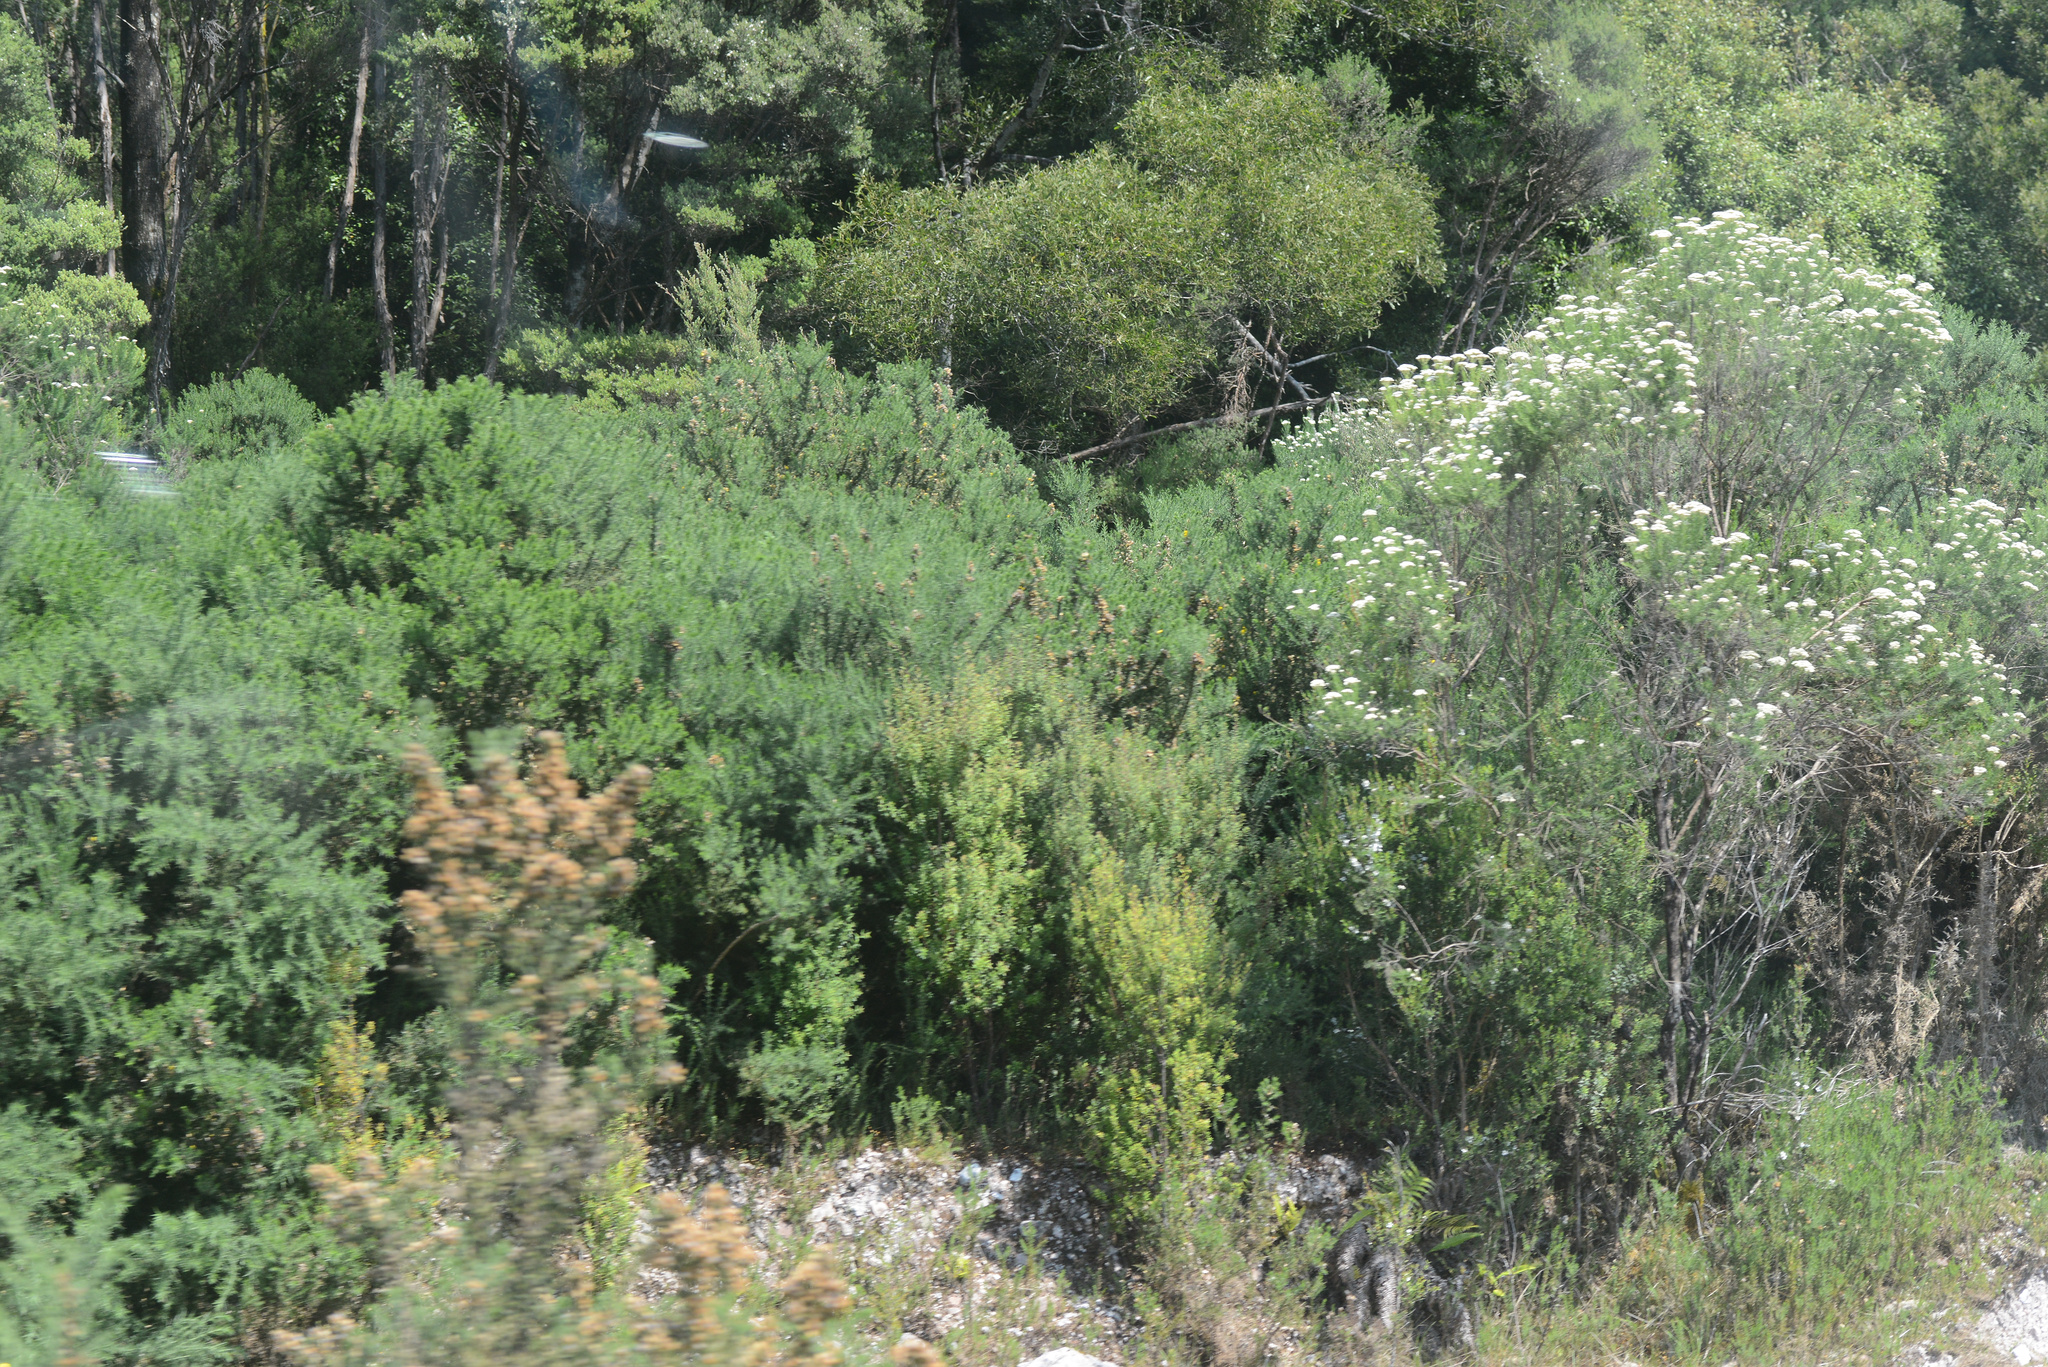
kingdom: Plantae
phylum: Tracheophyta
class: Magnoliopsida
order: Fabales
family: Fabaceae
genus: Ulex
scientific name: Ulex europaeus
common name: Common gorse
